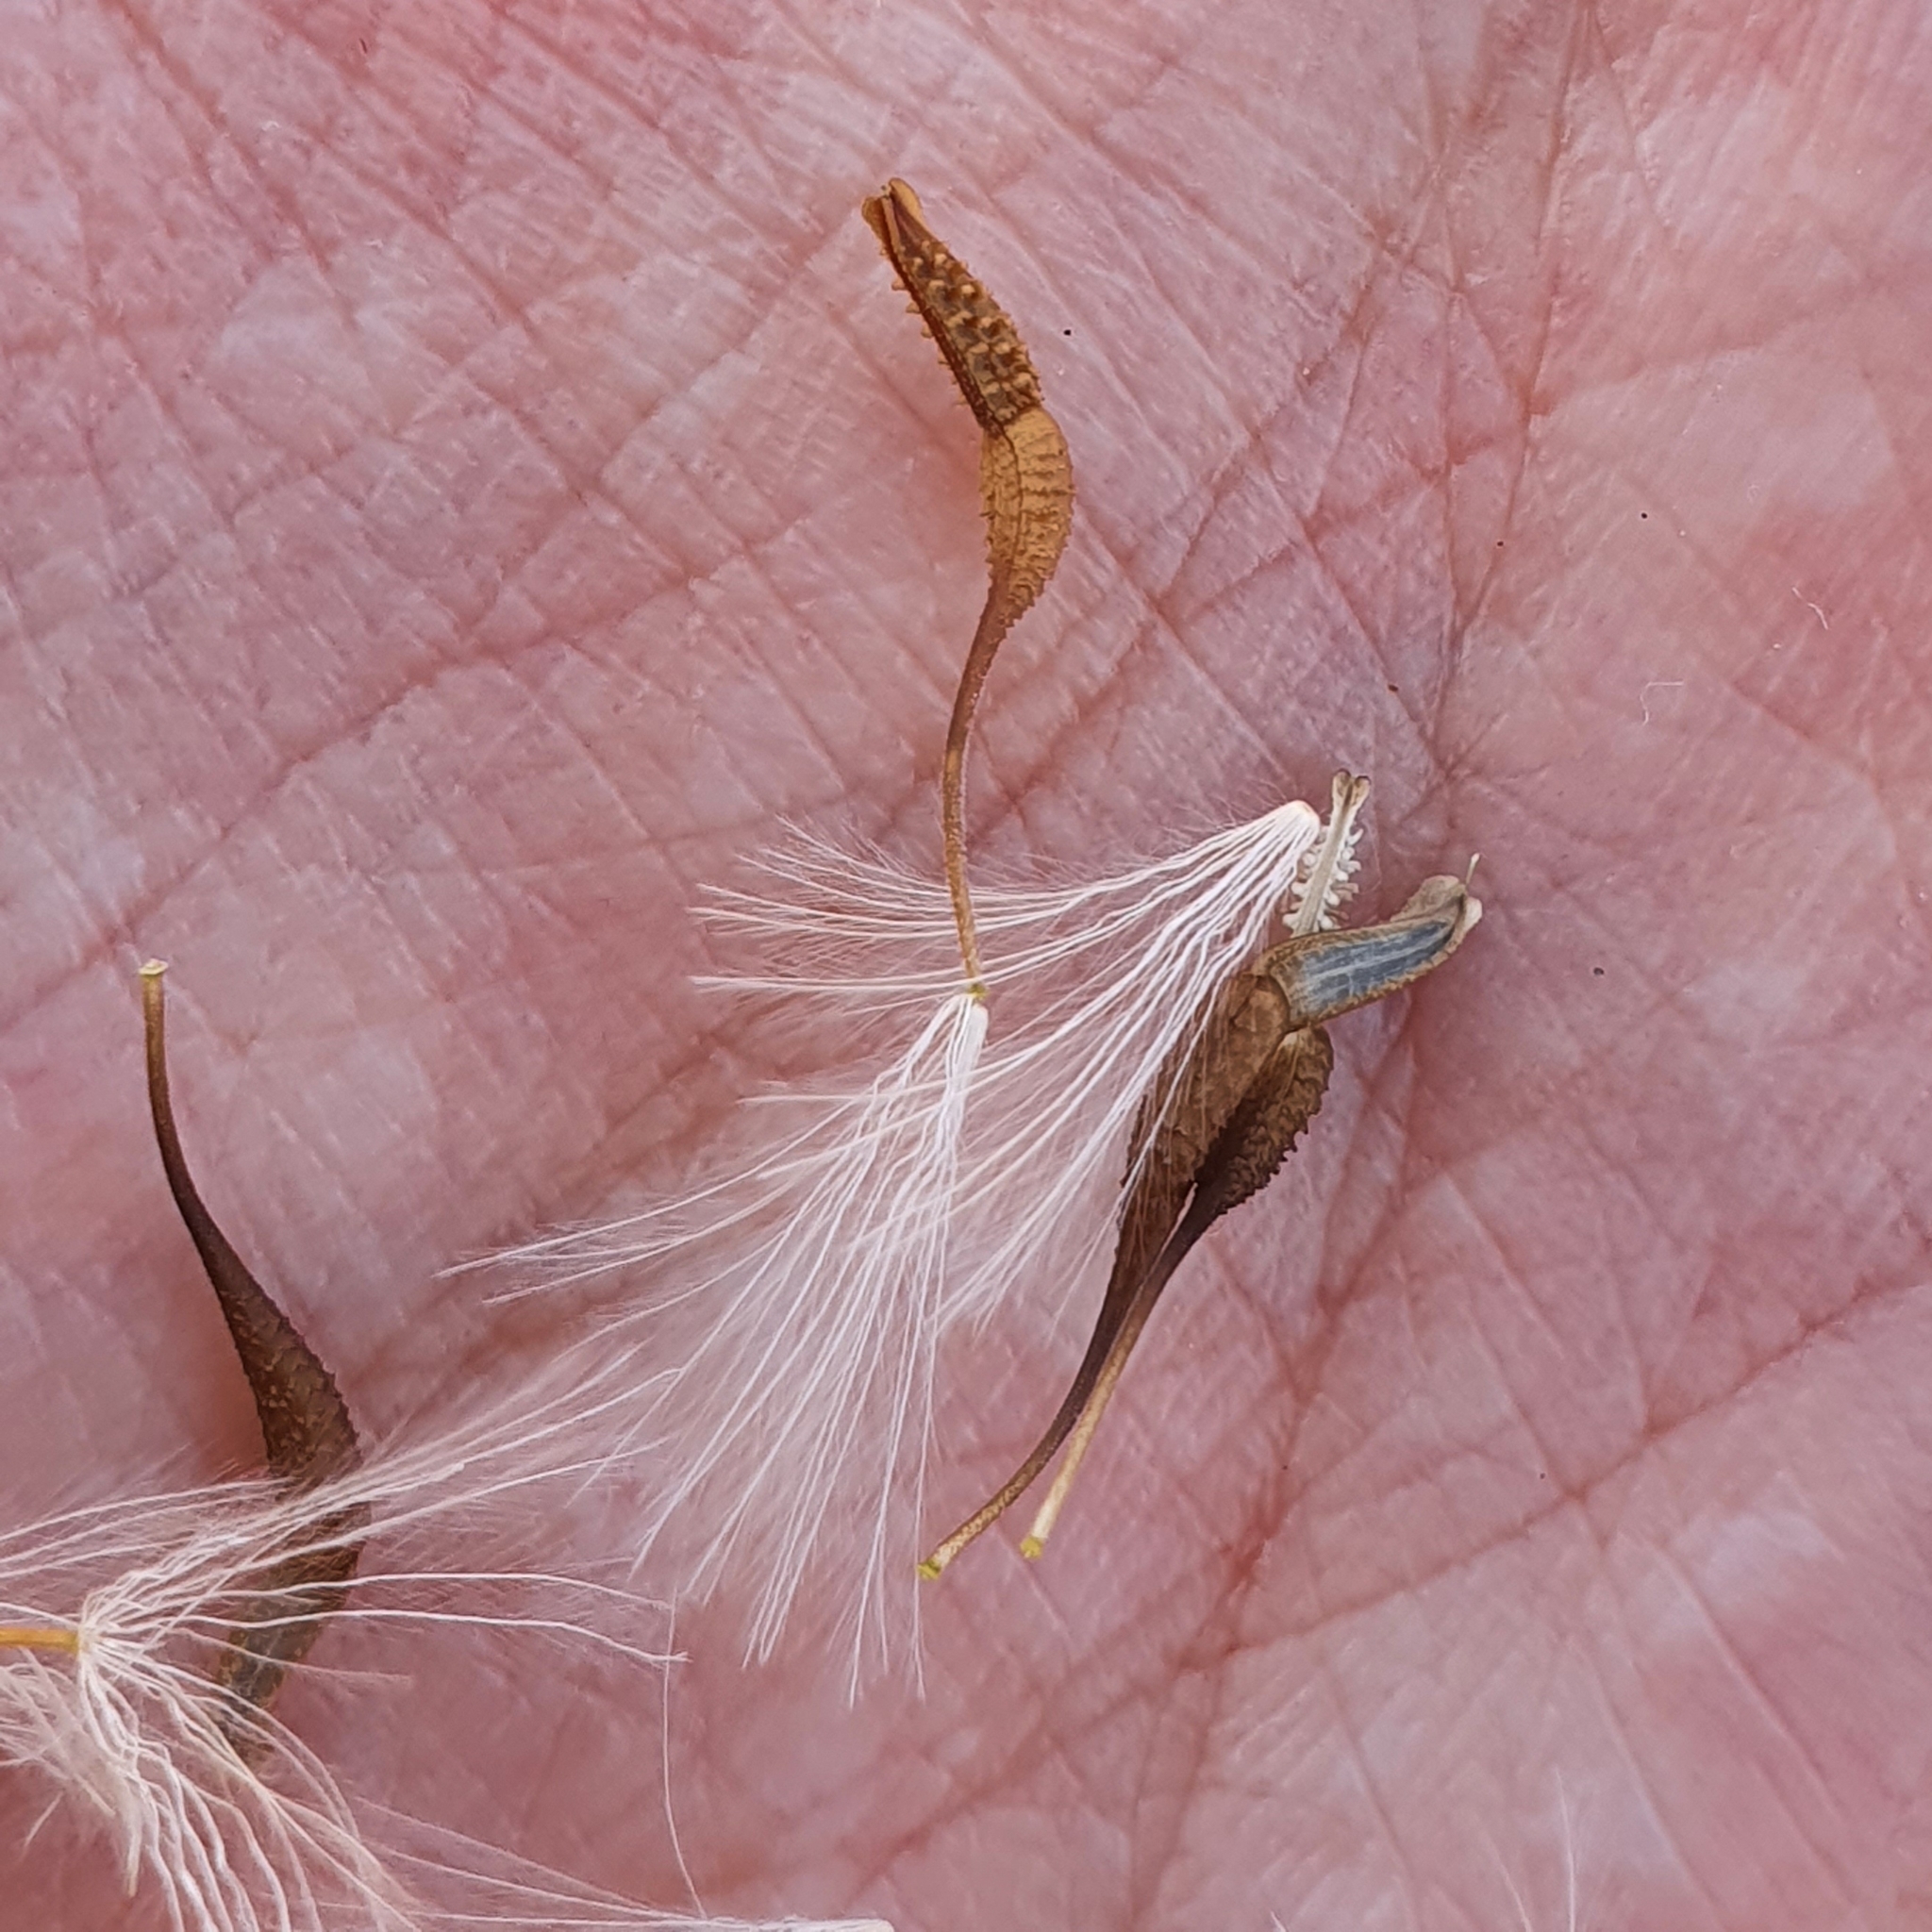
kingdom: Plantae
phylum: Tracheophyta
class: Magnoliopsida
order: Asterales
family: Asteraceae
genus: Urospermum
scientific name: Urospermum picroides
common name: False hawkbit
